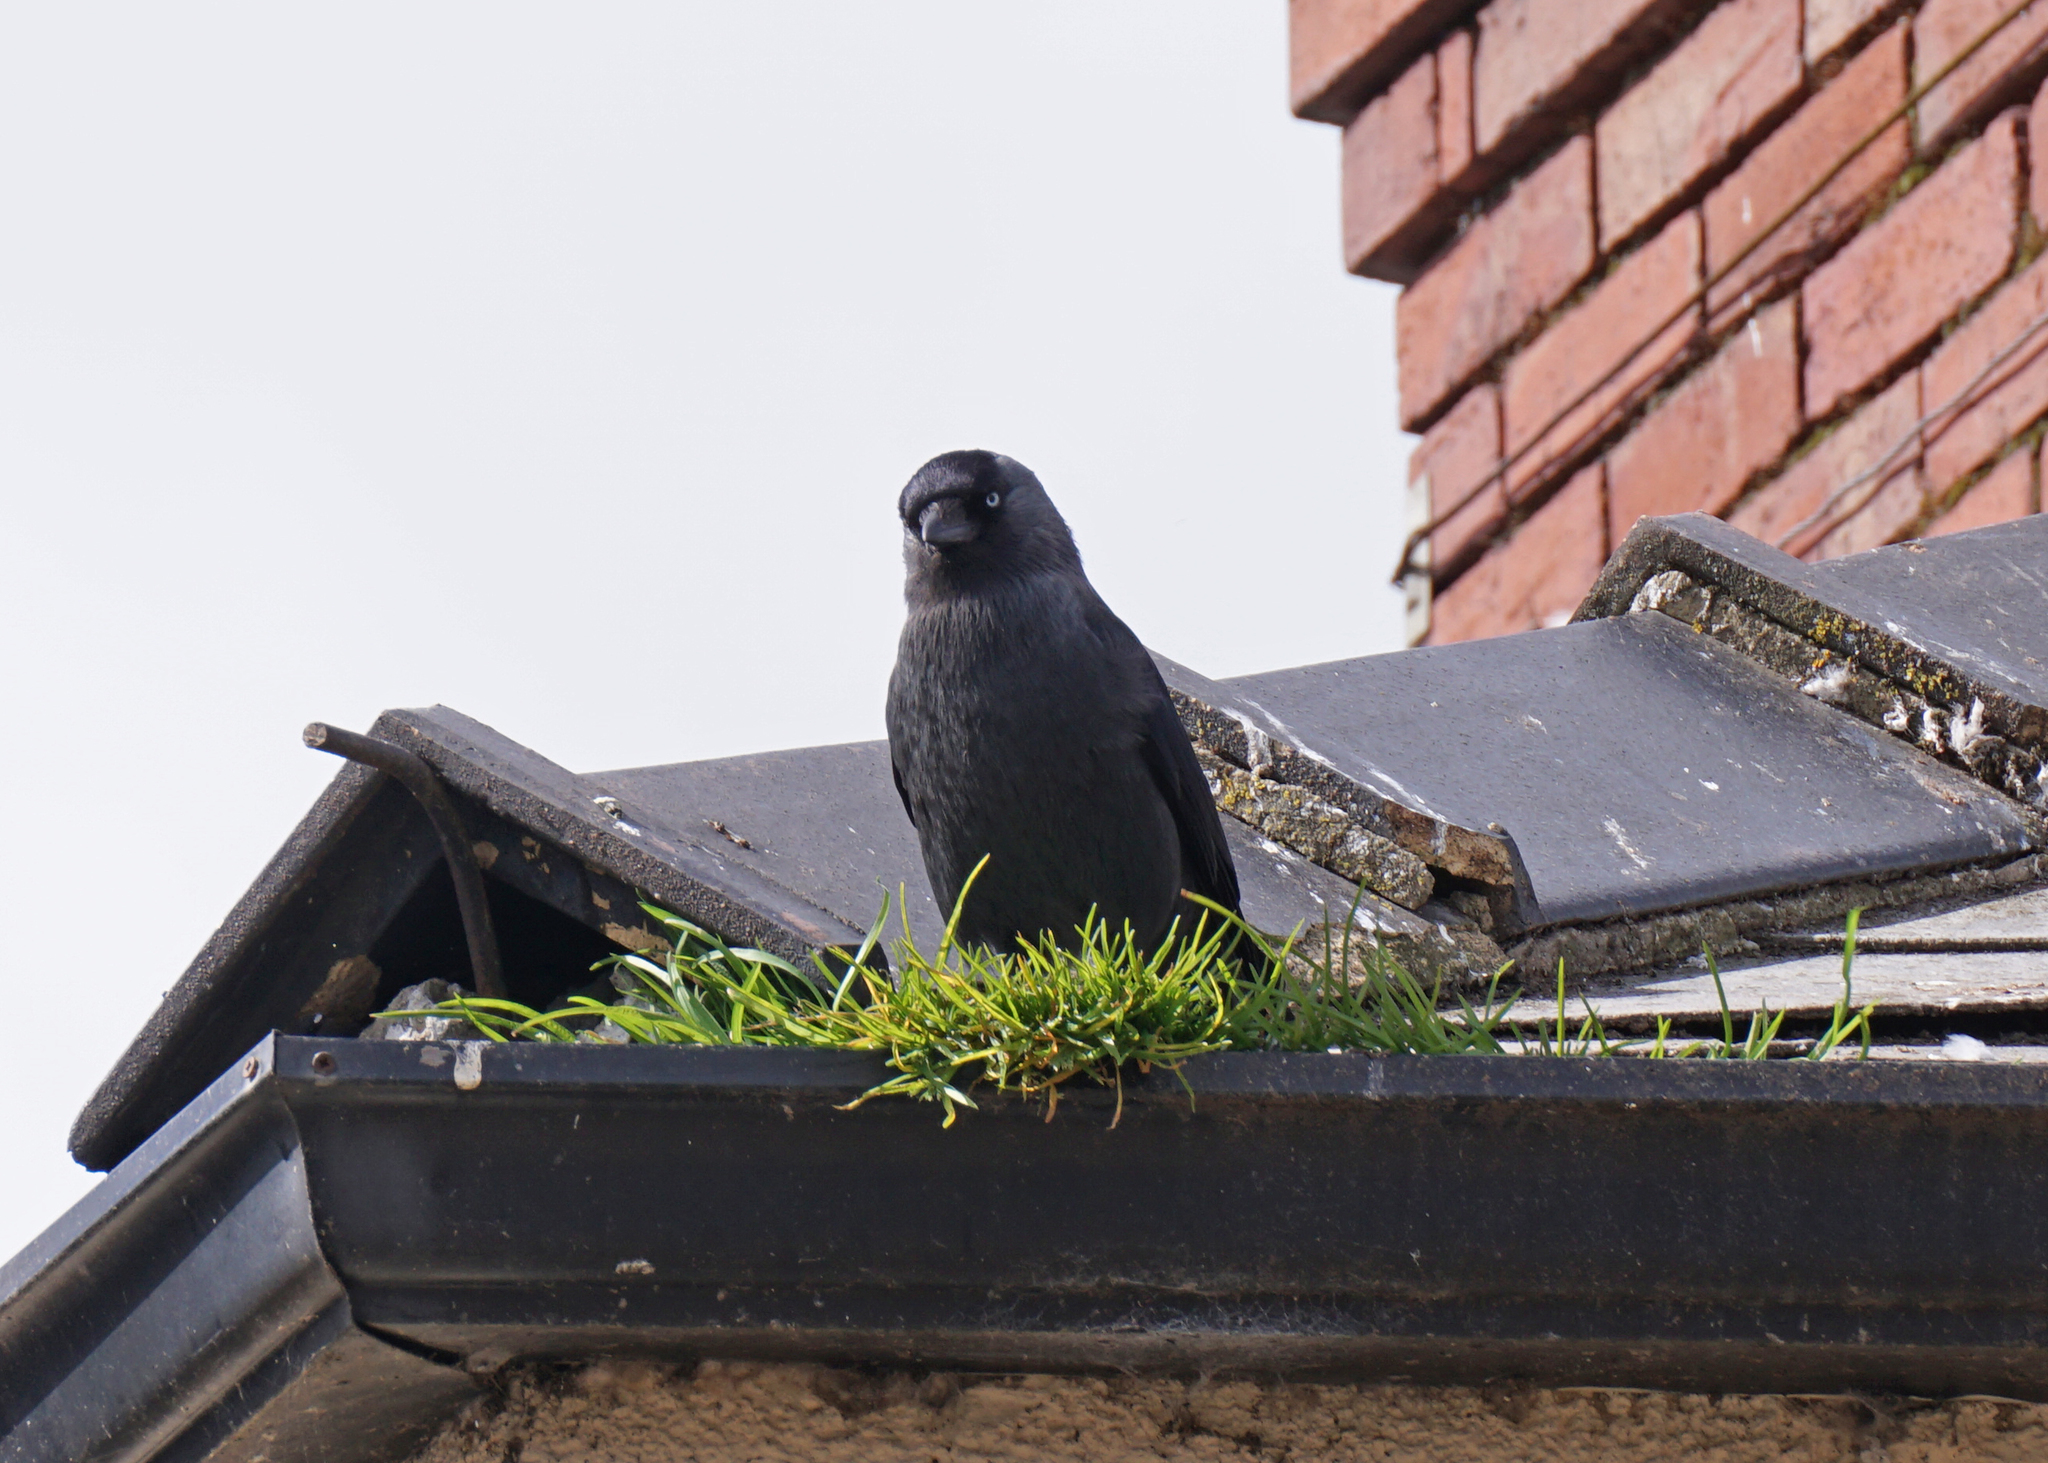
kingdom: Animalia
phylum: Chordata
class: Aves
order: Passeriformes
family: Corvidae
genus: Coloeus
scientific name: Coloeus monedula
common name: Western jackdaw
